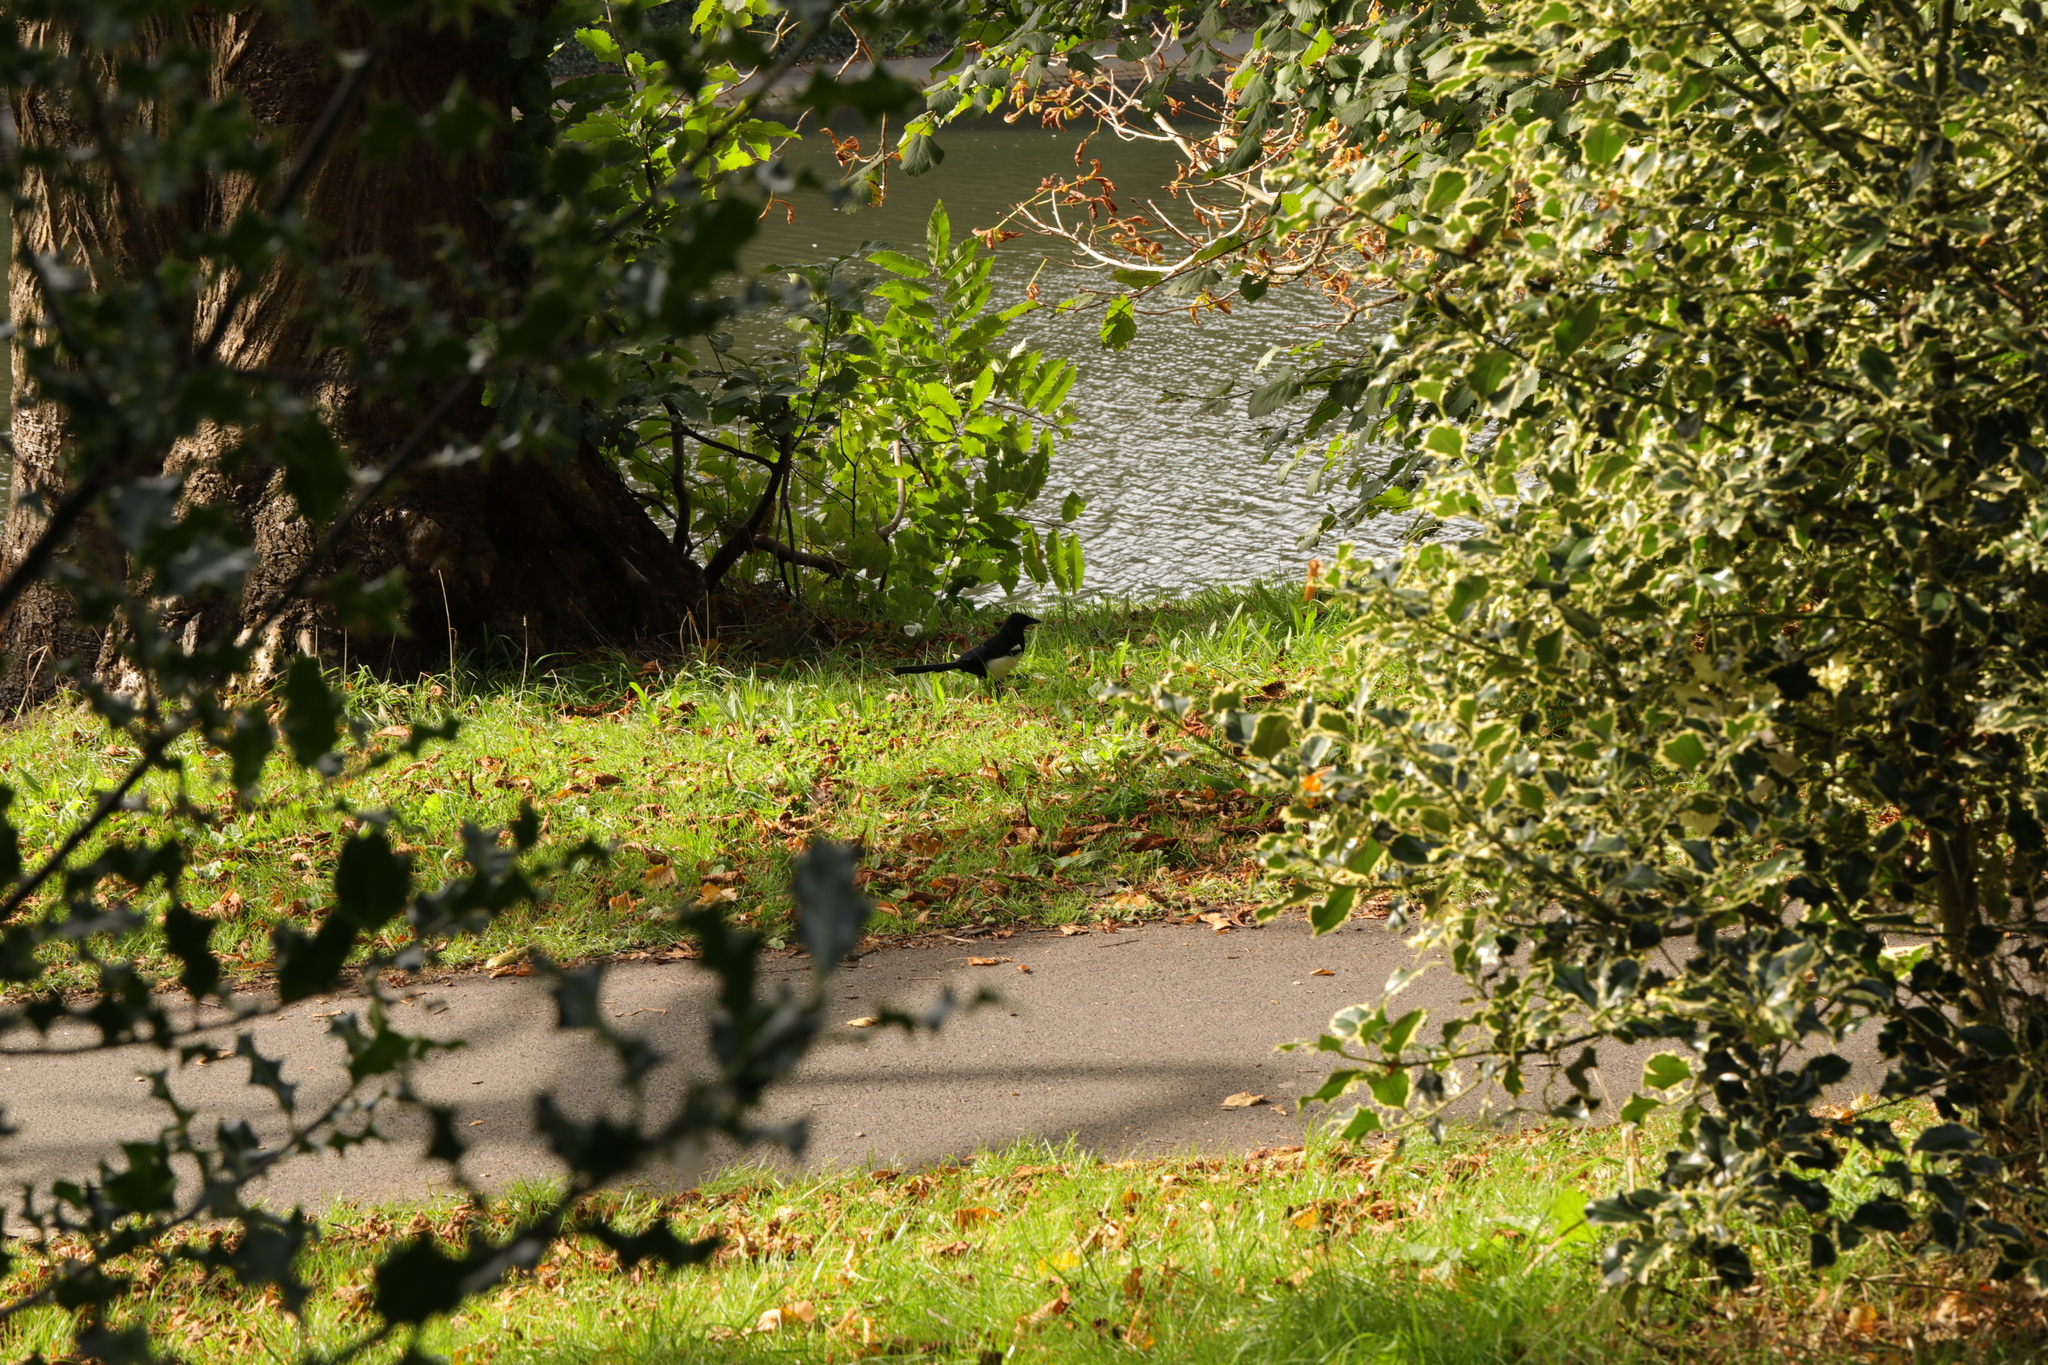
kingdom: Animalia
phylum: Chordata
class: Aves
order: Passeriformes
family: Corvidae
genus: Pica
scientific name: Pica pica
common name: Eurasian magpie
